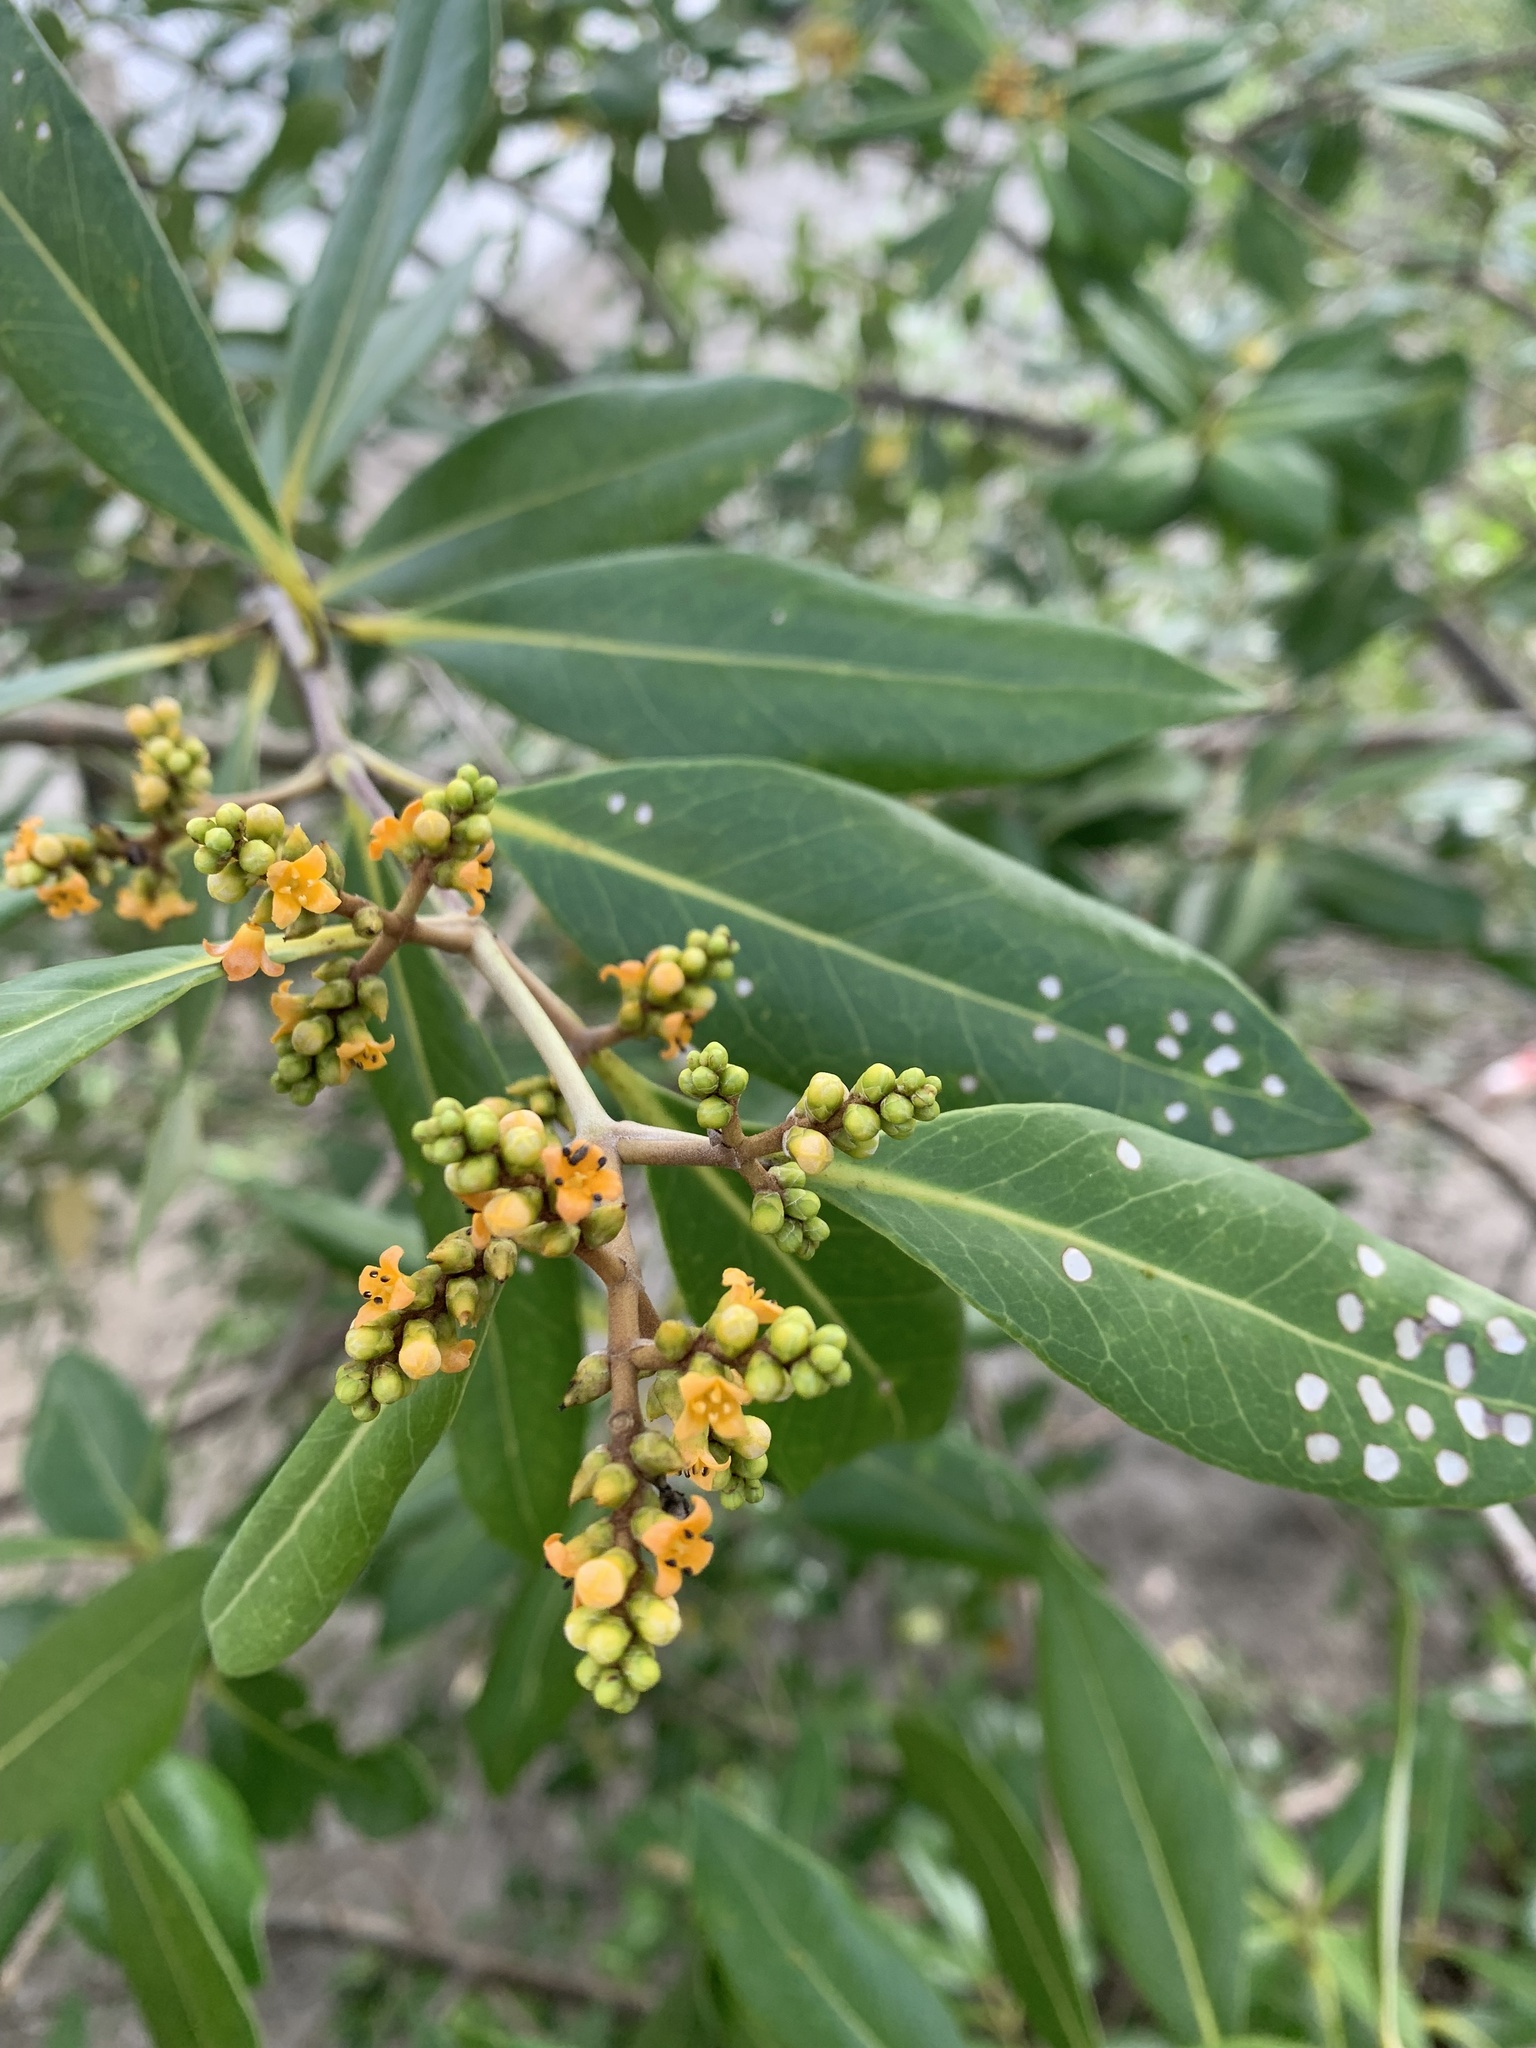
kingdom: Plantae
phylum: Tracheophyta
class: Magnoliopsida
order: Lamiales
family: Acanthaceae
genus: Avicennia
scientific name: Avicennia marina
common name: Gray mangrove
